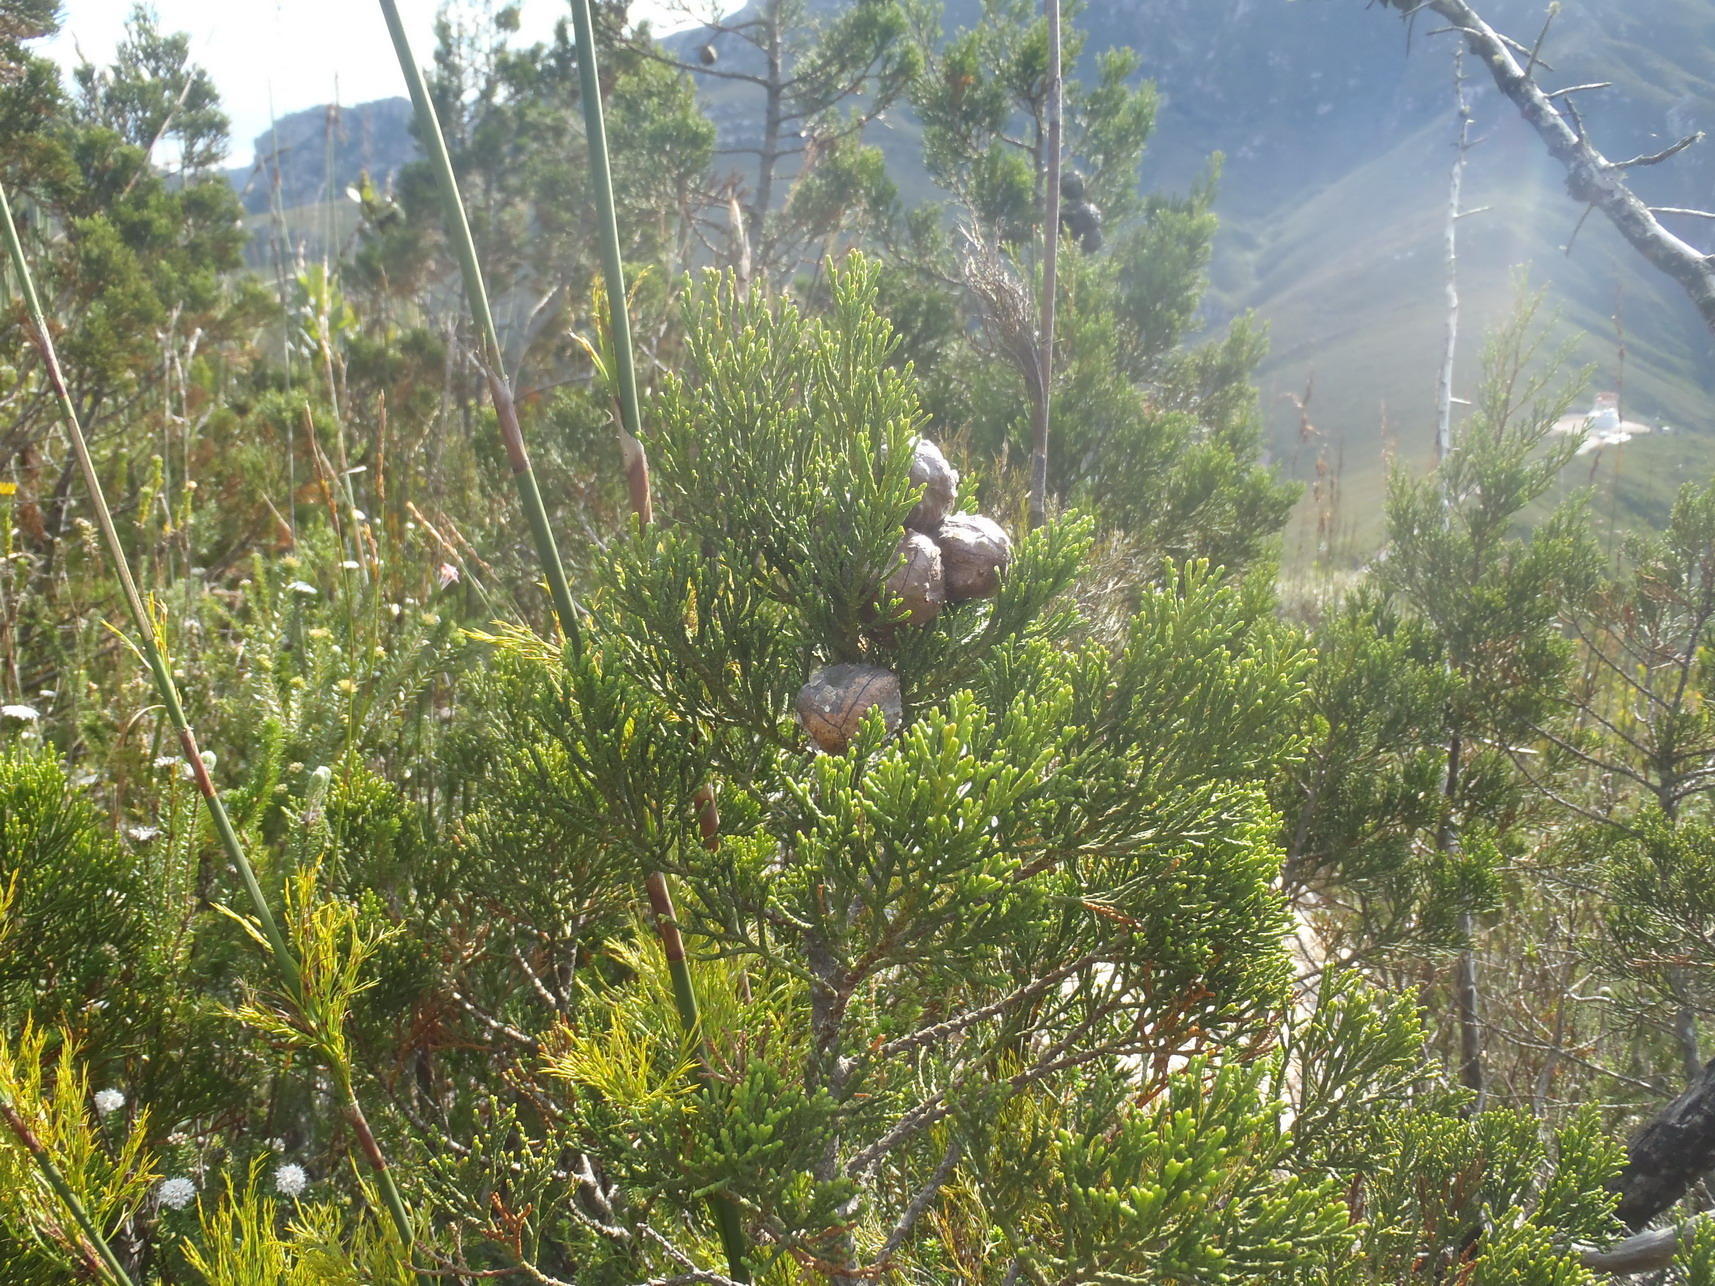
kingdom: Plantae
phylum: Tracheophyta
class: Pinopsida
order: Pinales
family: Cupressaceae
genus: Widdringtonia
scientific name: Widdringtonia nodiflora
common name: Cape cypress
